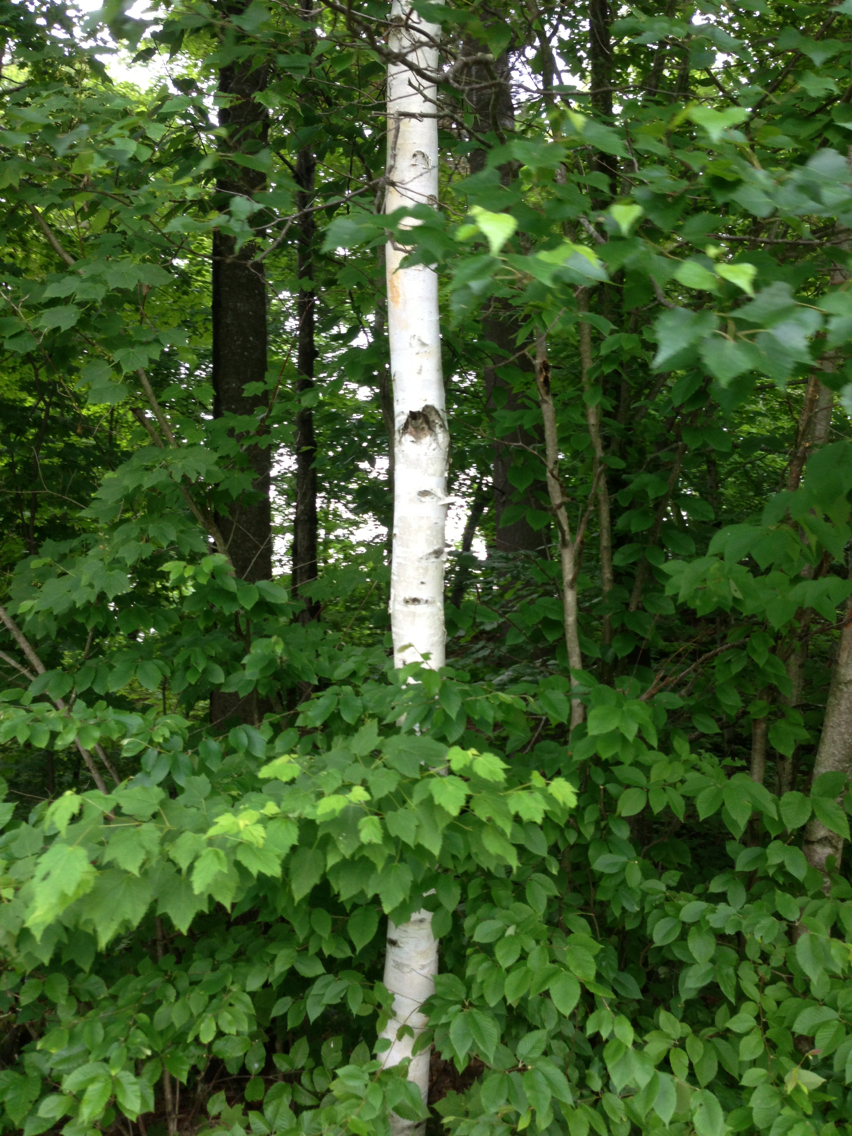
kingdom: Plantae
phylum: Tracheophyta
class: Magnoliopsida
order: Fagales
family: Betulaceae
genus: Betula
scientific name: Betula papyrifera
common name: Paper birch
